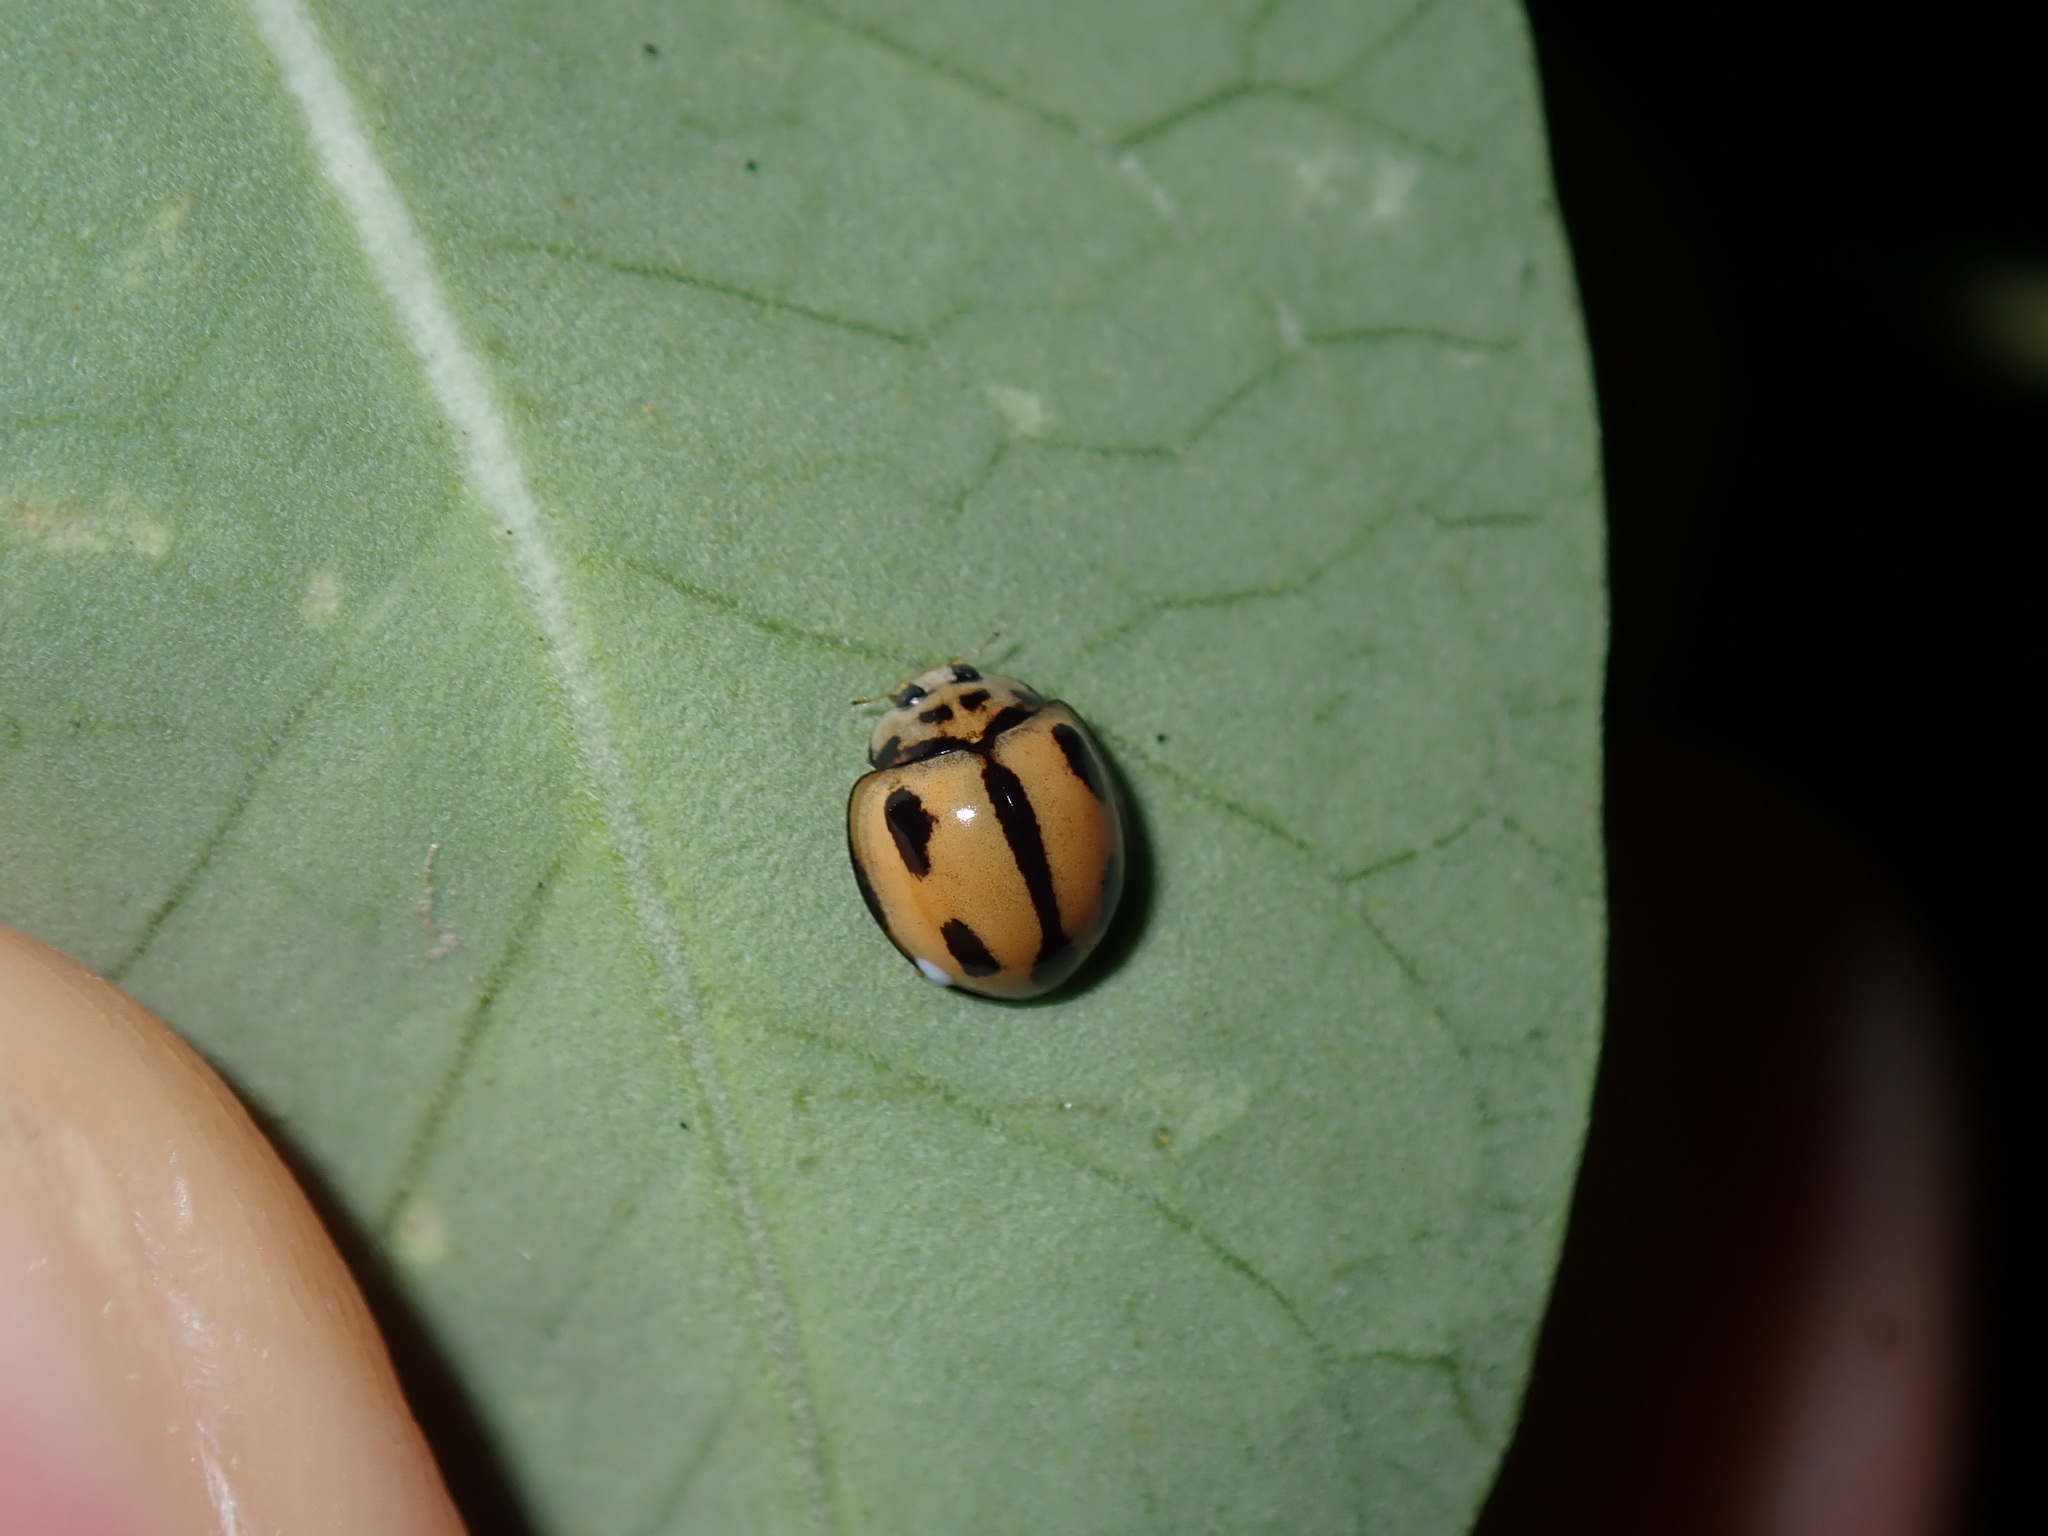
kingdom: Animalia
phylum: Arthropoda
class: Insecta
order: Coleoptera
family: Coccinellidae
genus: Coelophora
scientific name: Coelophora inaequalis
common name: Common australian lady beetle
